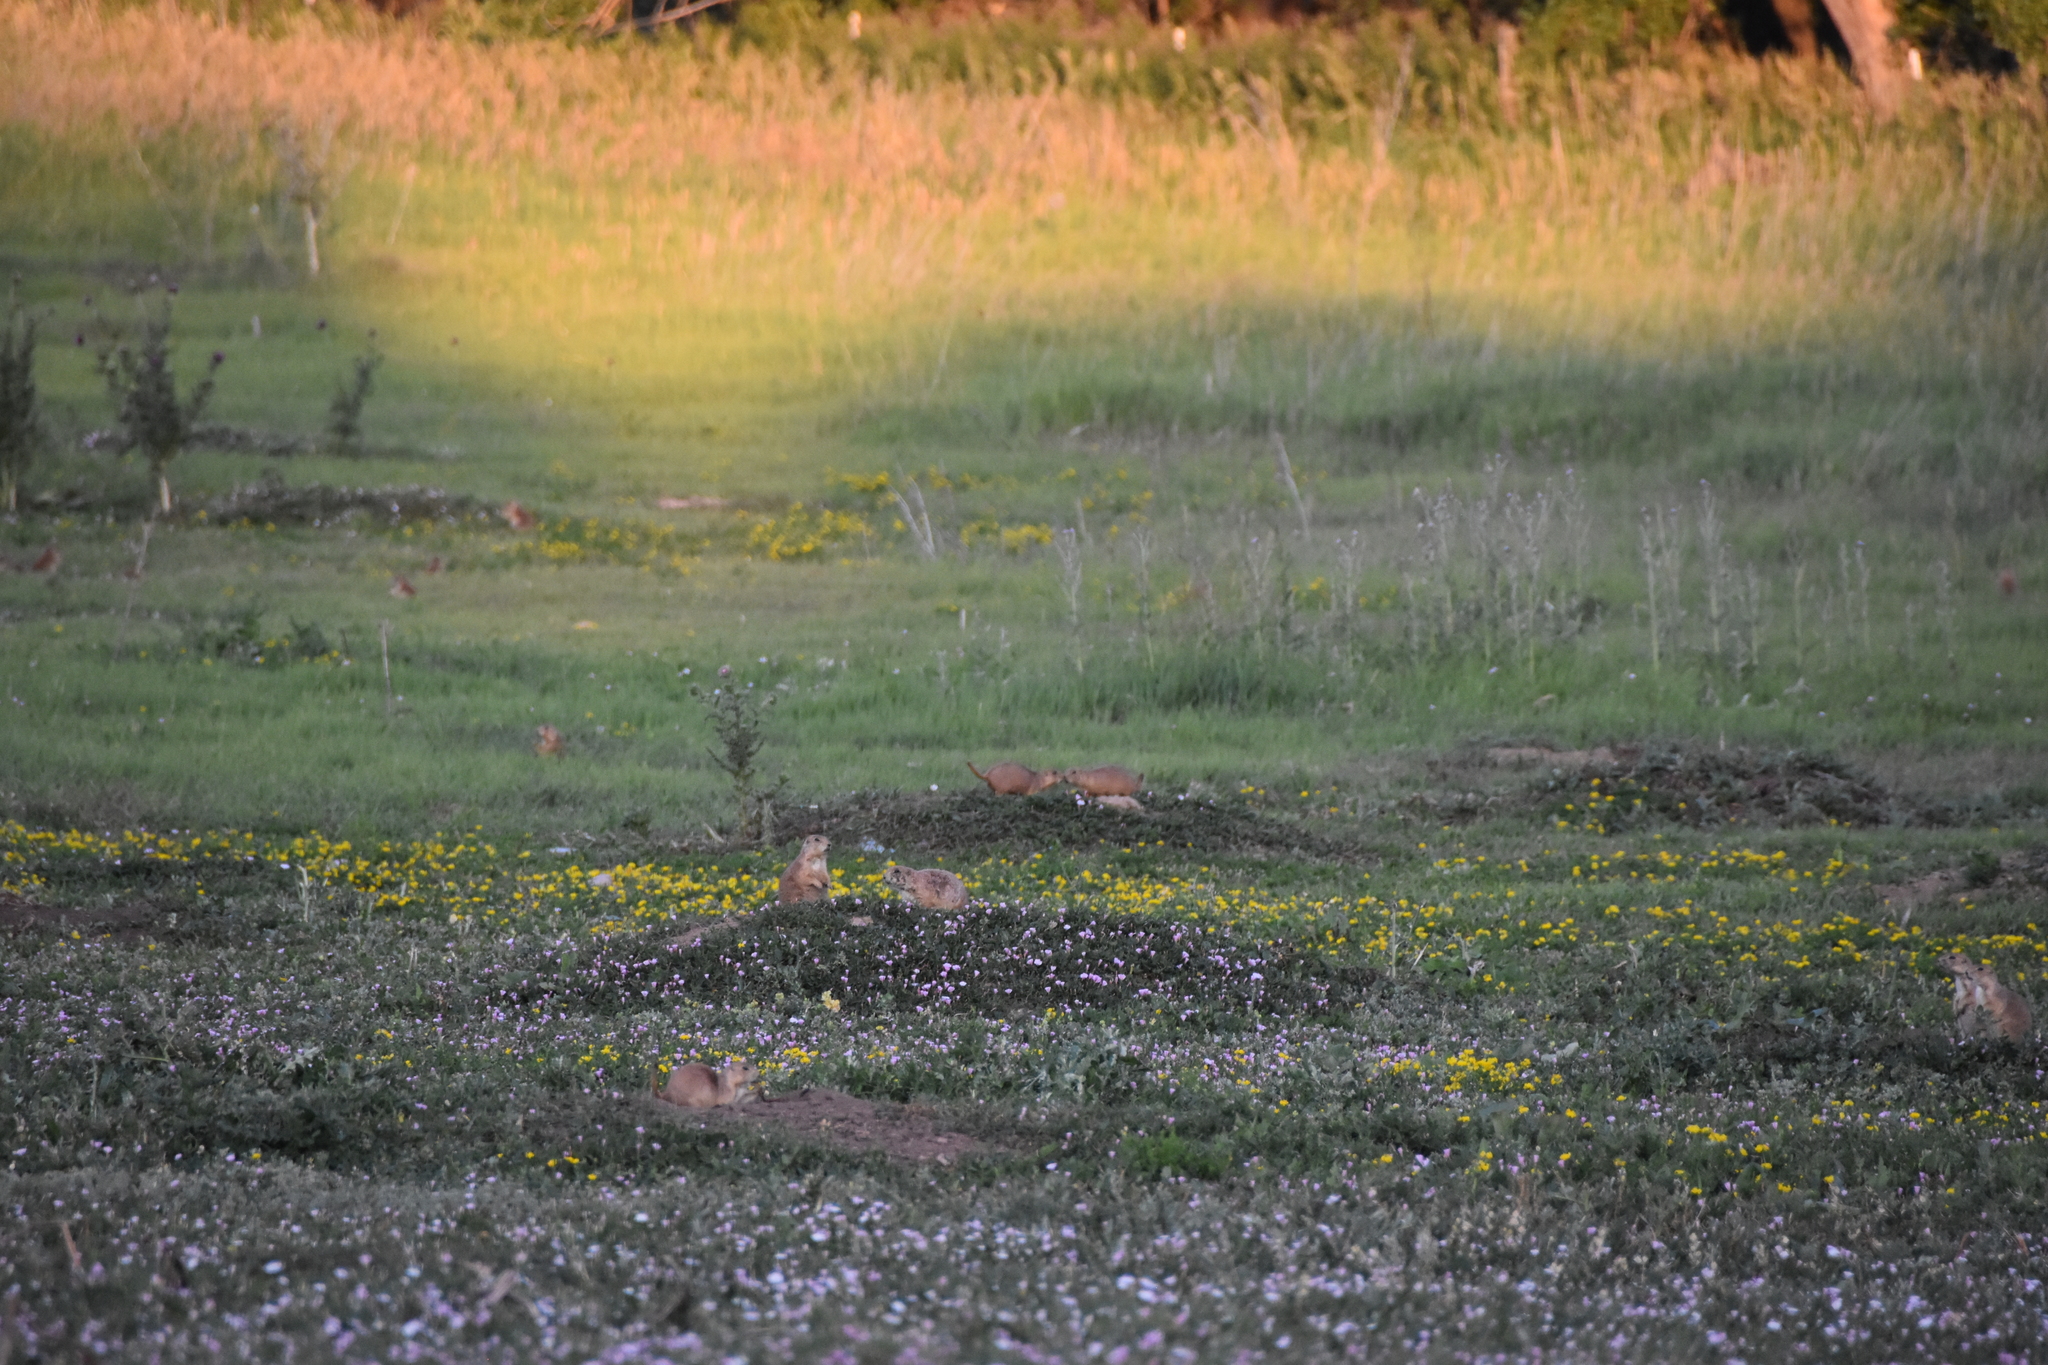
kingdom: Animalia
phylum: Chordata
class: Mammalia
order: Rodentia
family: Sciuridae
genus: Cynomys
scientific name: Cynomys ludovicianus
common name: Black-tailed prairie dog
